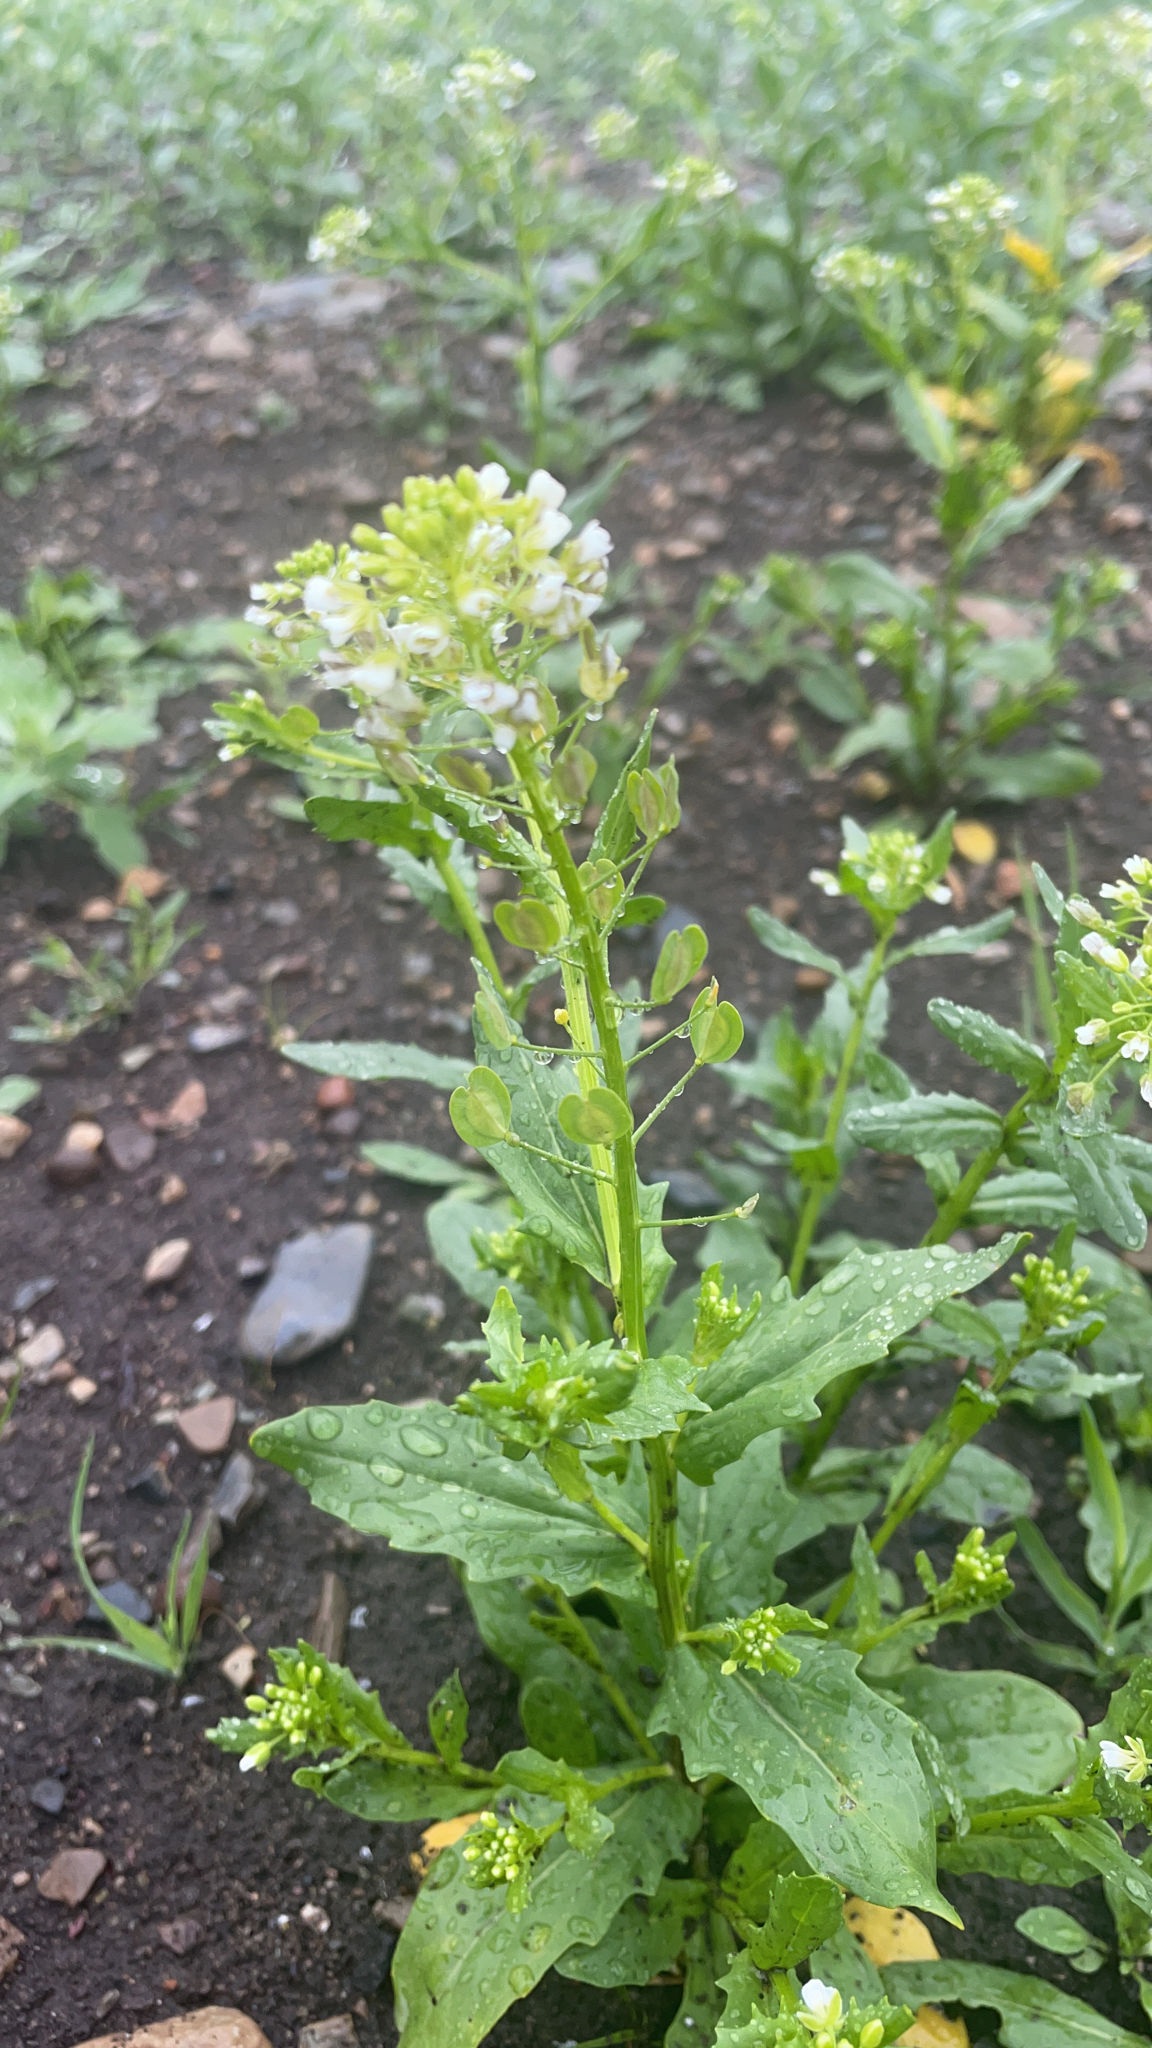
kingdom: Plantae
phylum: Tracheophyta
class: Magnoliopsida
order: Brassicales
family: Brassicaceae
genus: Thlaspi
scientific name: Thlaspi arvense
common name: Field pennycress
